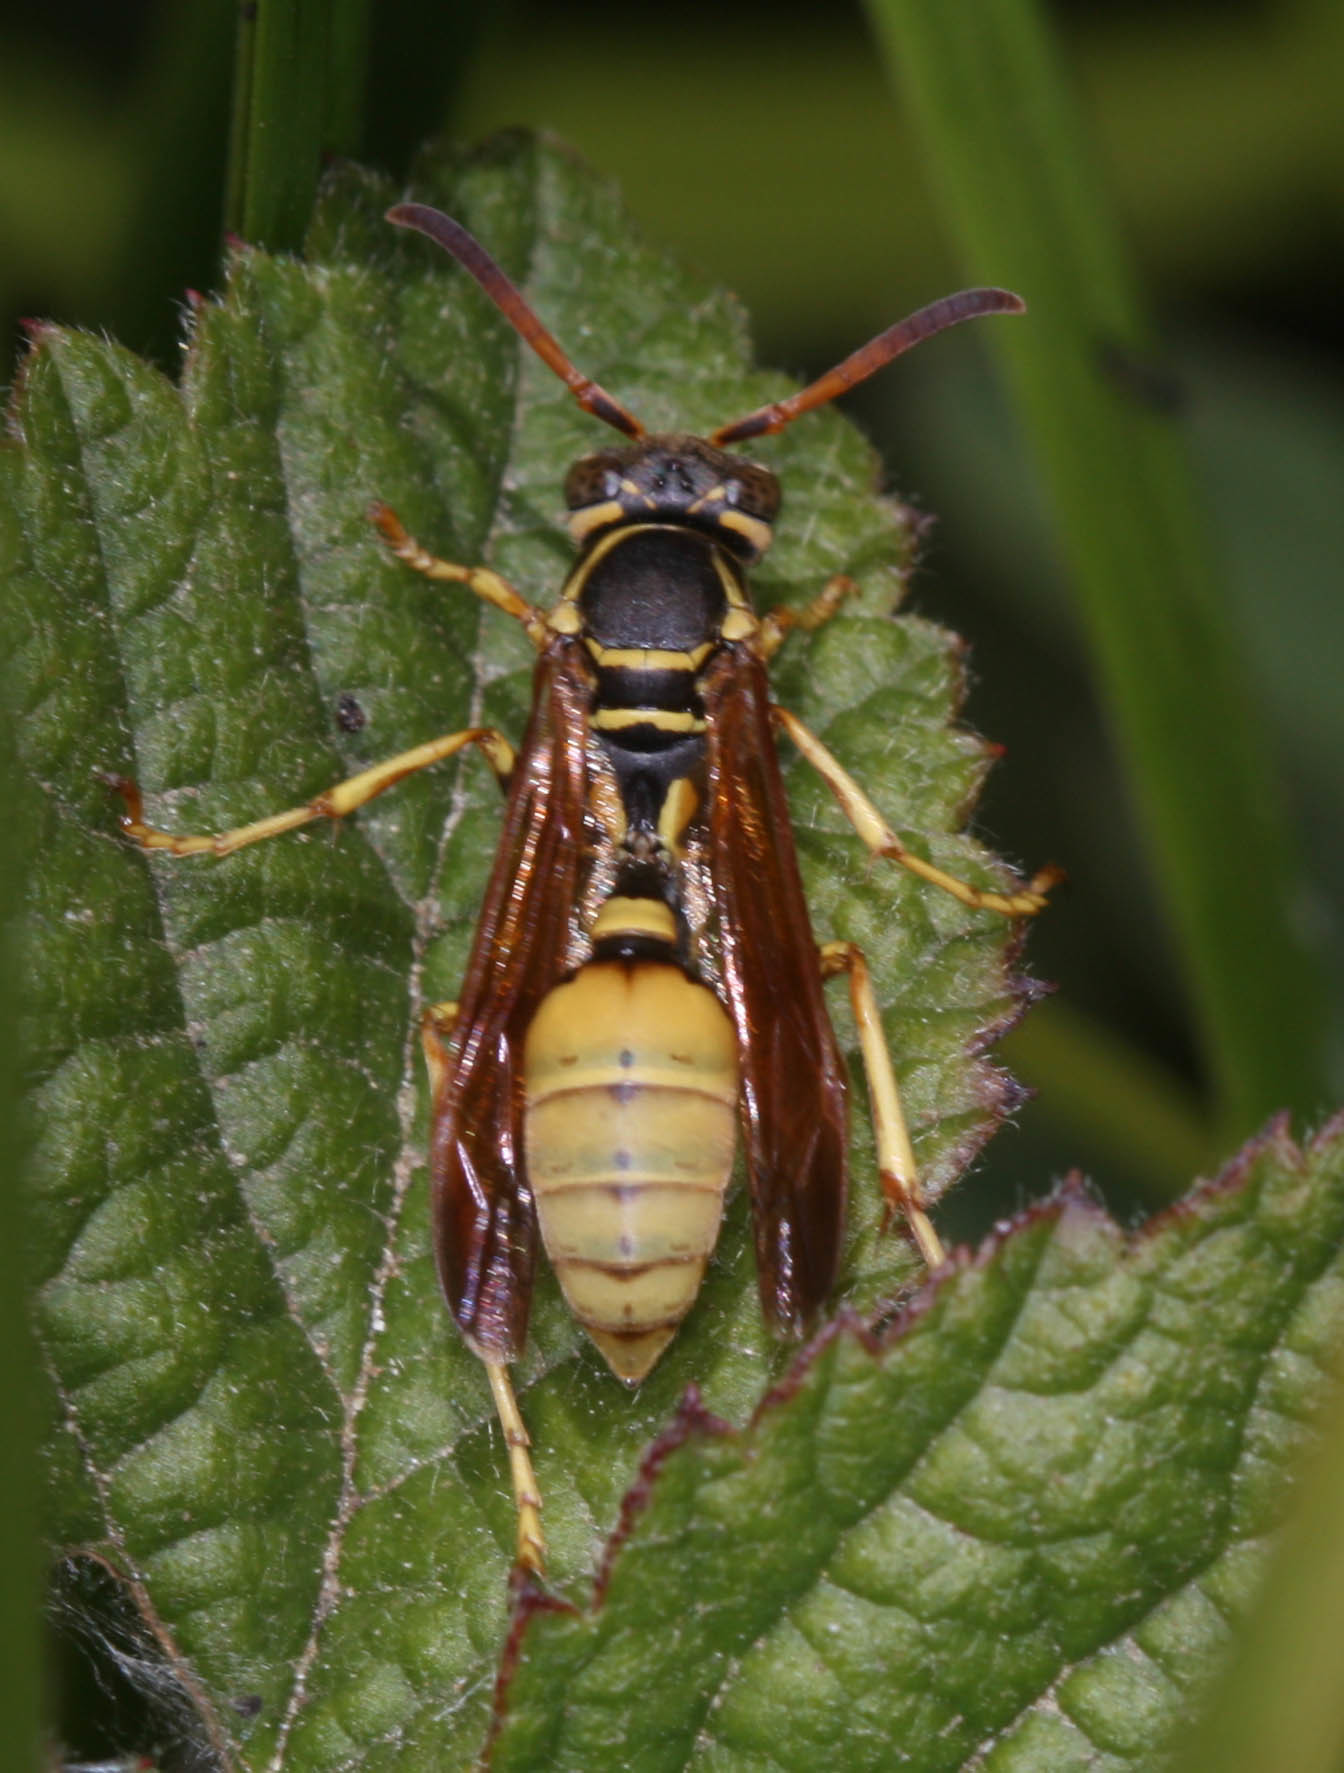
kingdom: Animalia
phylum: Arthropoda
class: Insecta
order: Hymenoptera
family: Vespidae
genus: Mischocyttarus
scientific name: Mischocyttarus flavitarsis
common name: Wasp
